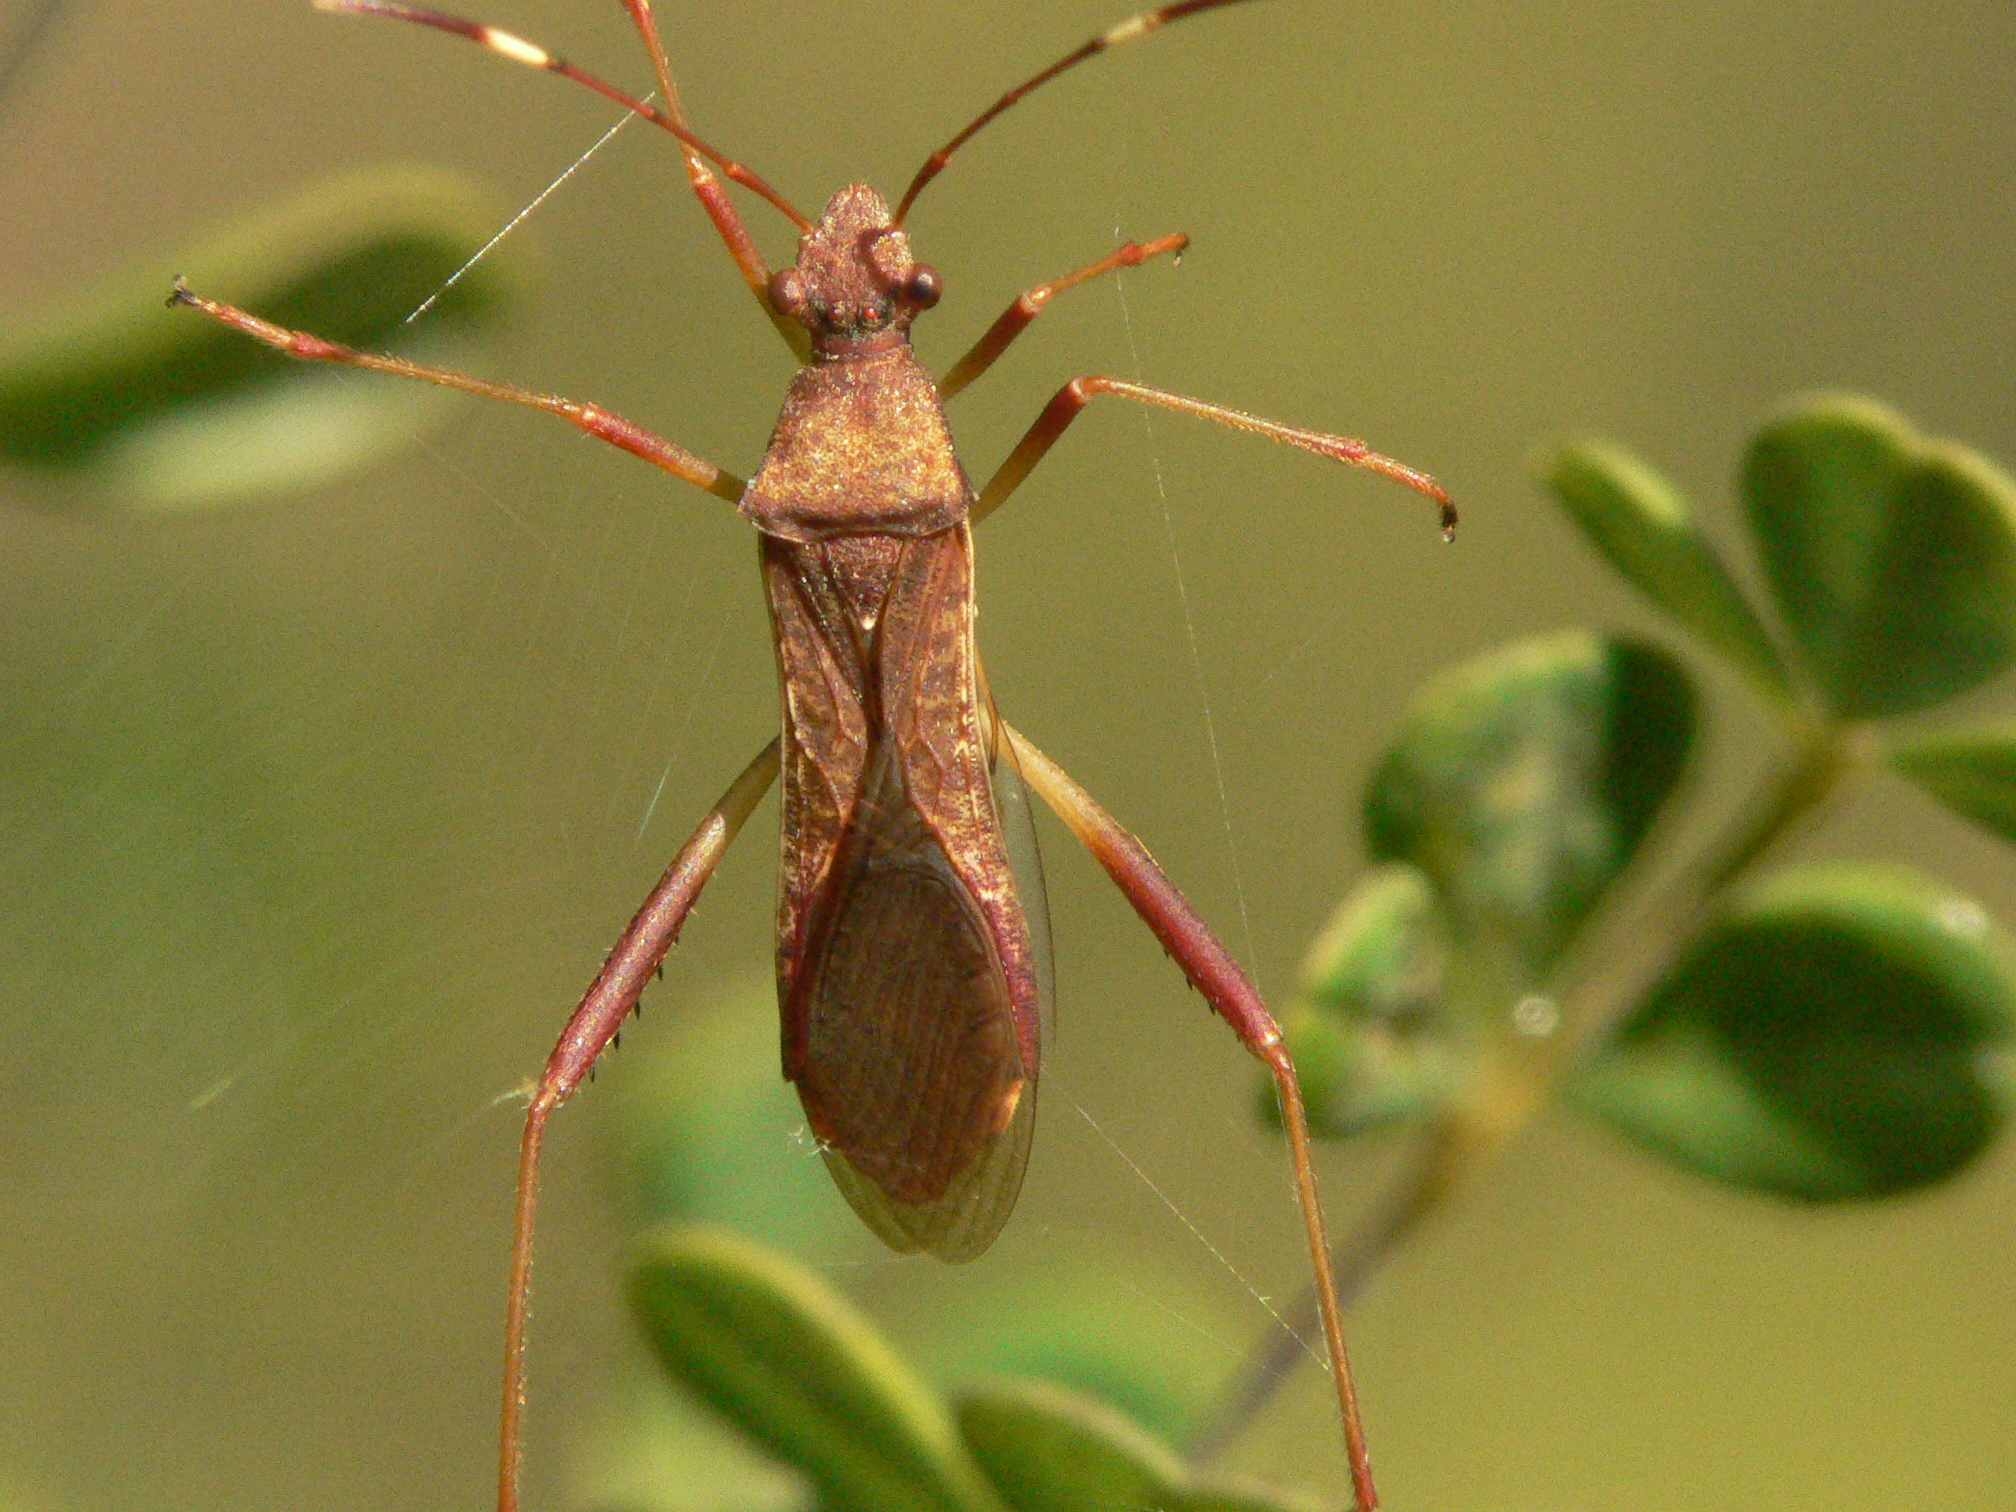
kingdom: Animalia
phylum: Arthropoda
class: Insecta
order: Hemiptera
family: Alydidae
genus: Megalotomus
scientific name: Megalotomus quinquespinosus
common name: Lupine bug
